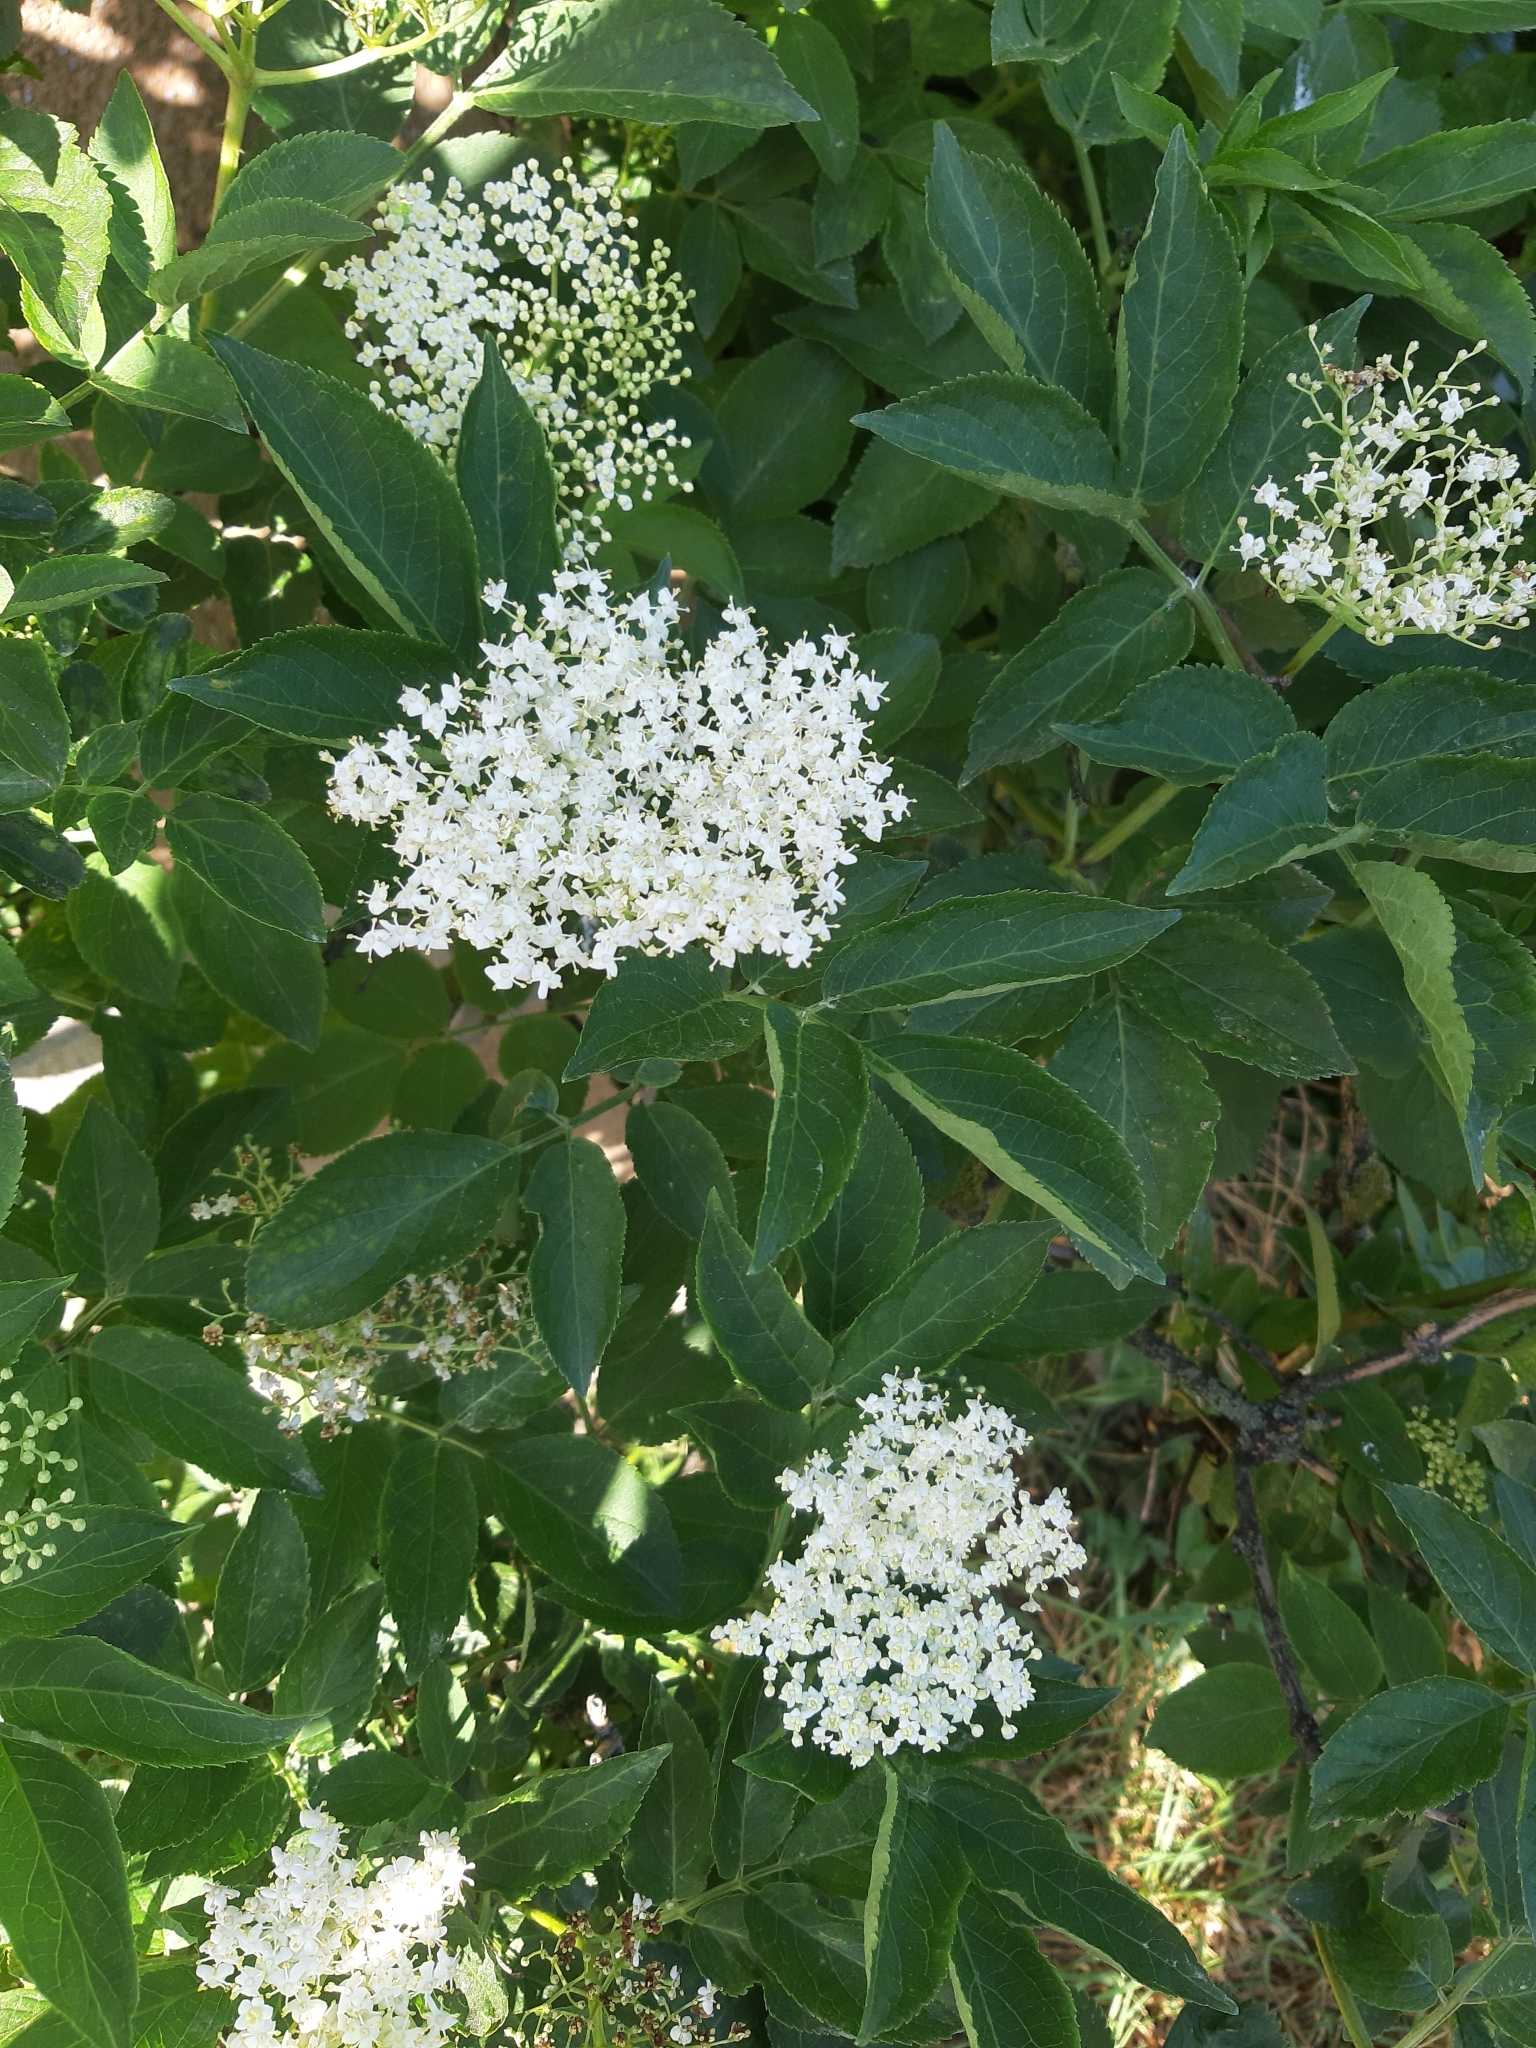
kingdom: Plantae
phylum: Tracheophyta
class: Magnoliopsida
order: Dipsacales
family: Viburnaceae
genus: Sambucus
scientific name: Sambucus nigra
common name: Elder
